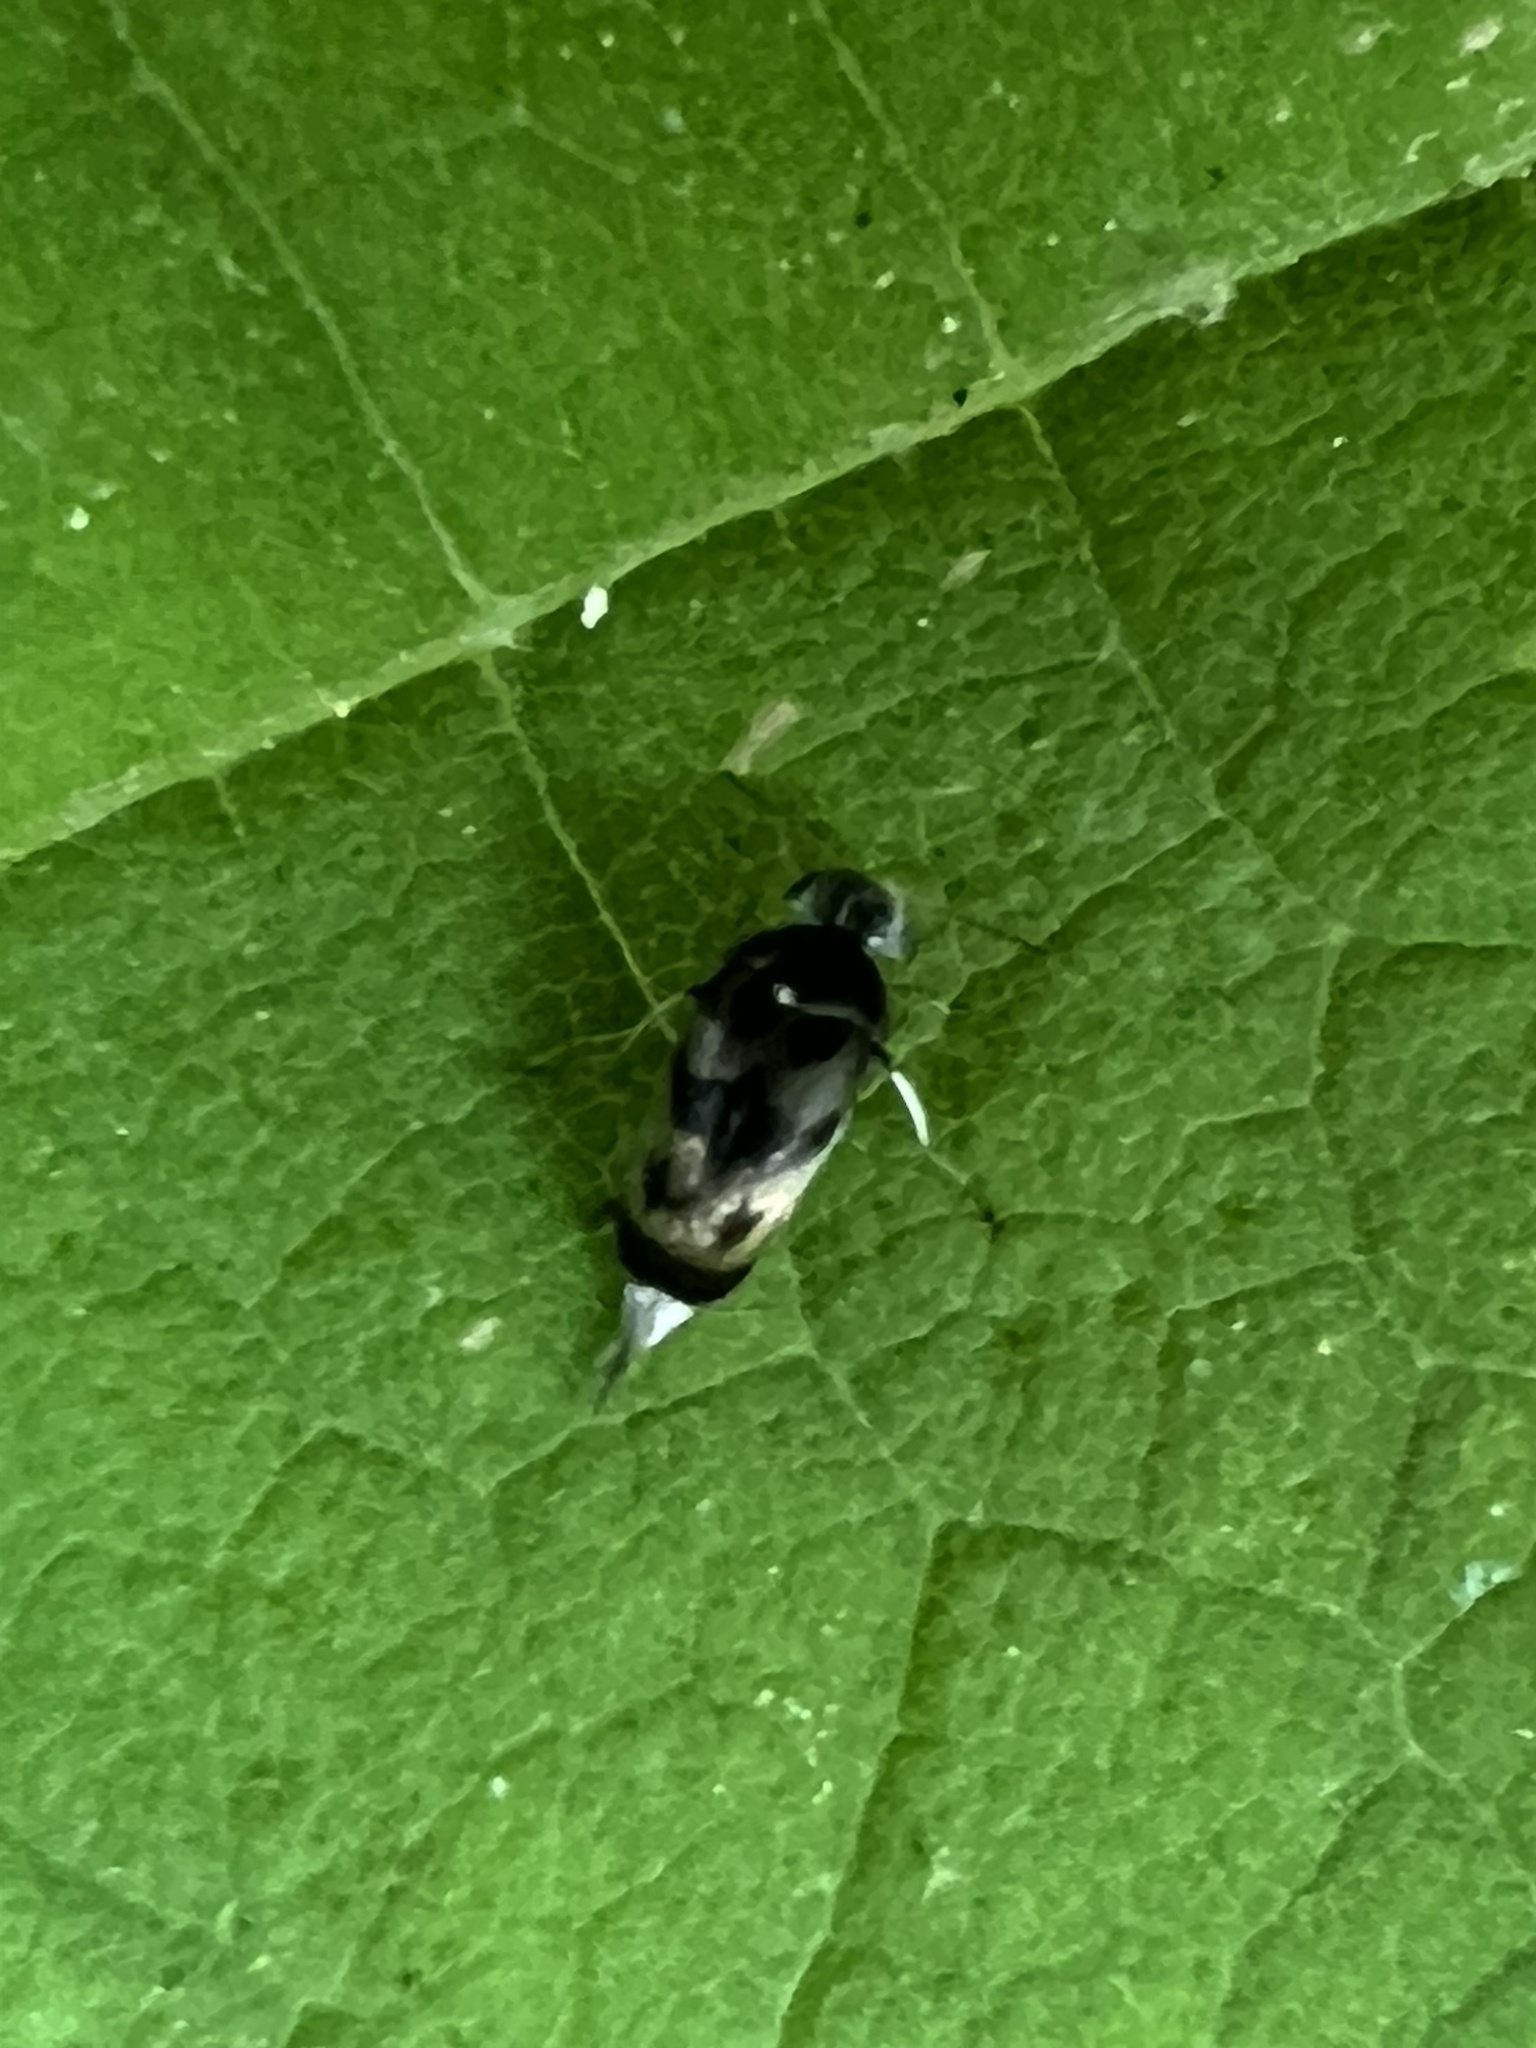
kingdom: Animalia
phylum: Arthropoda
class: Insecta
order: Coleoptera
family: Mordellidae
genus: Paramordellaria
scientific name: Paramordellaria triloba
